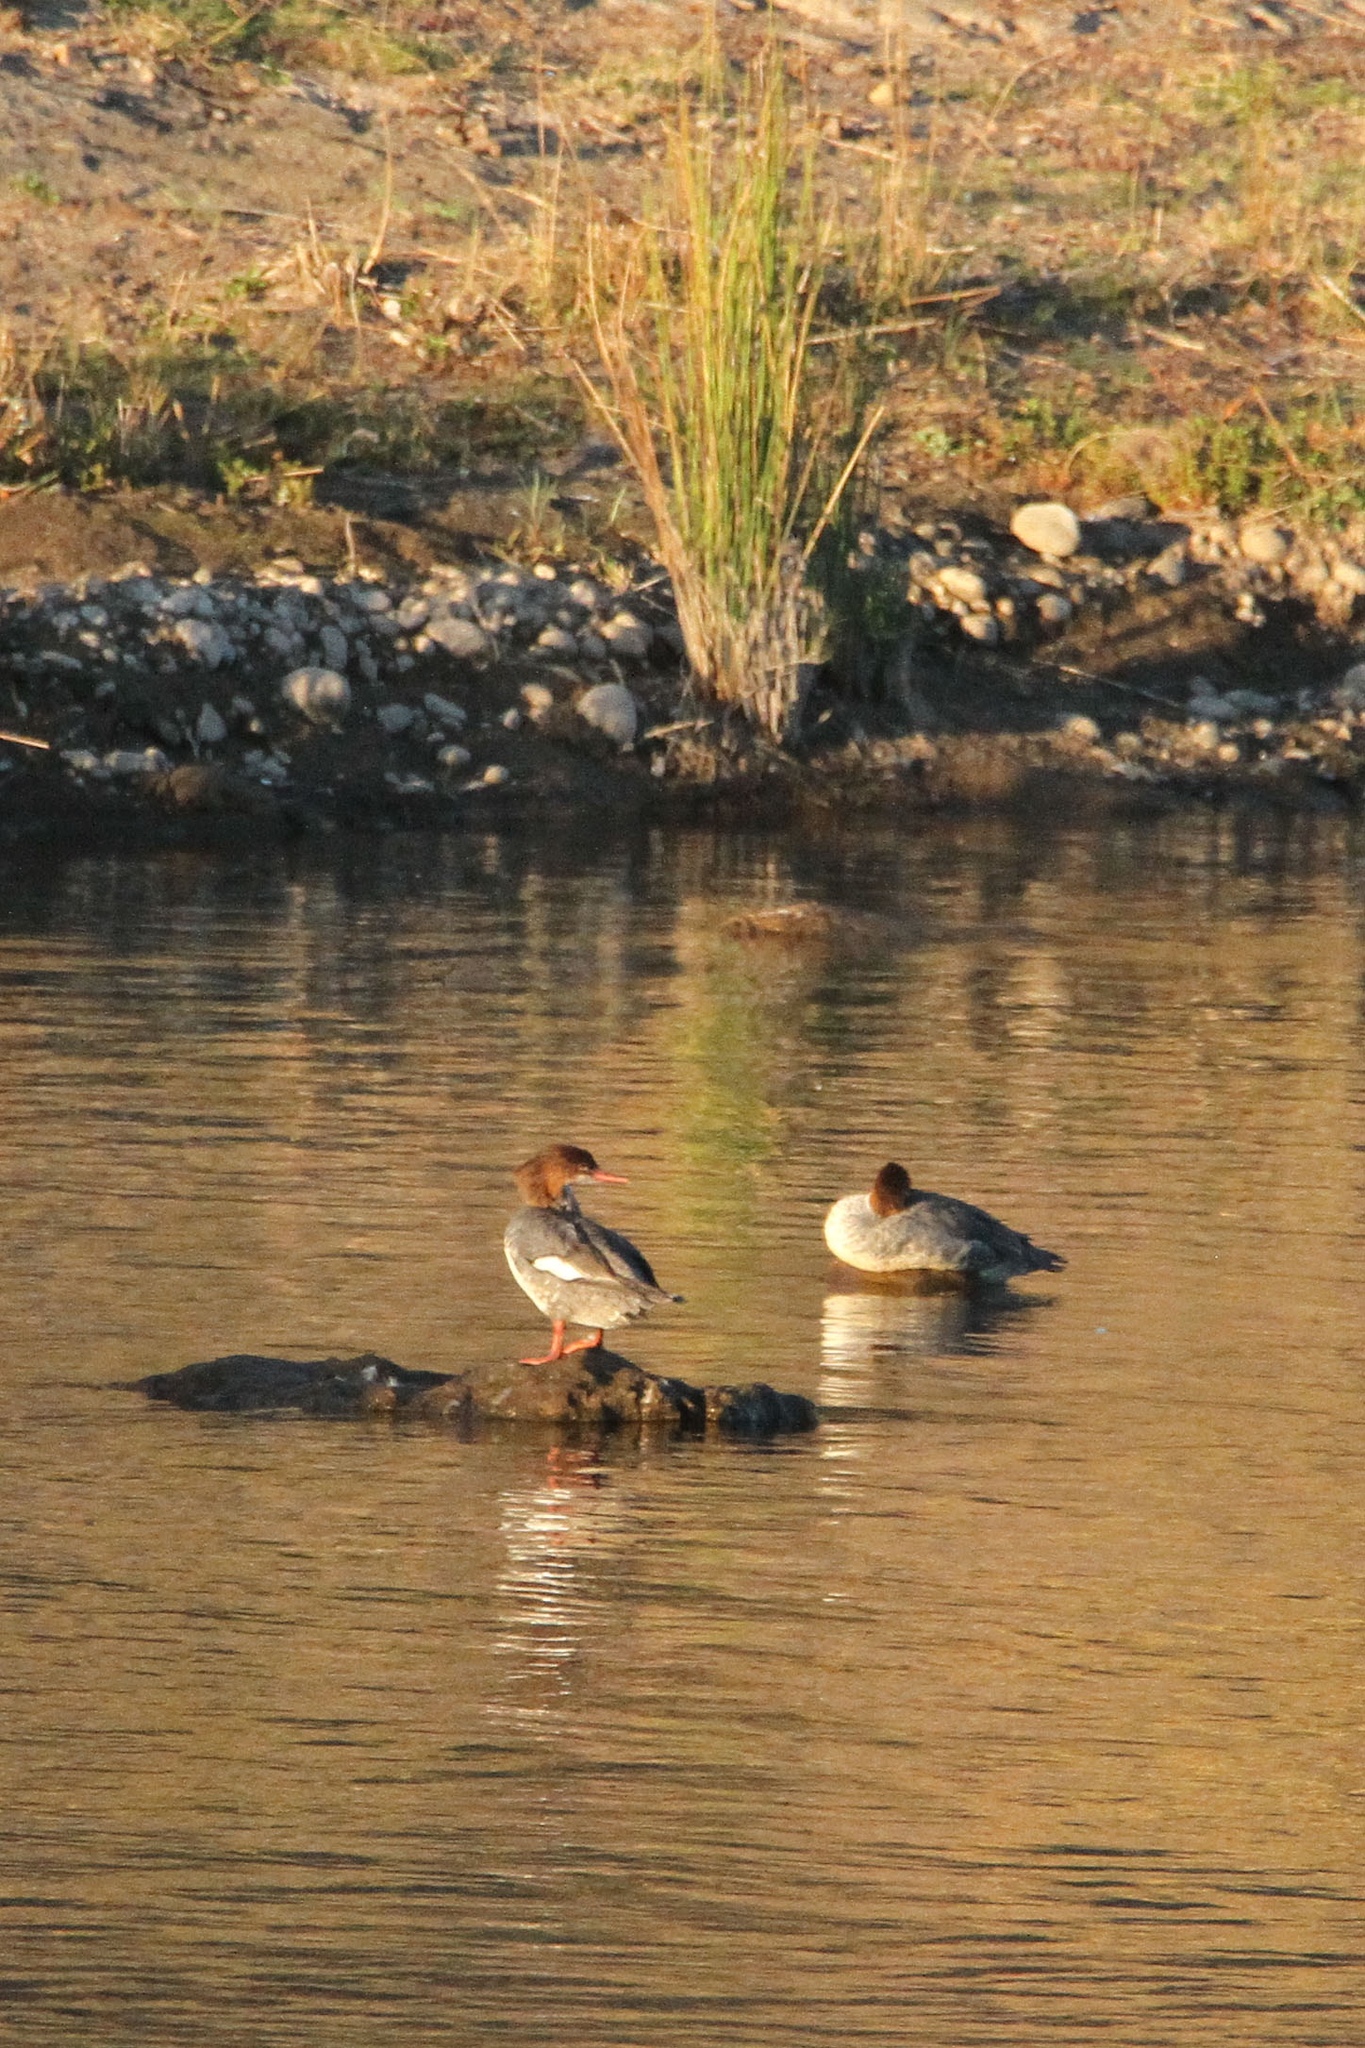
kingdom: Animalia
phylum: Chordata
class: Aves
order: Anseriformes
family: Anatidae
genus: Mergus
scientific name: Mergus merganser
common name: Common merganser
